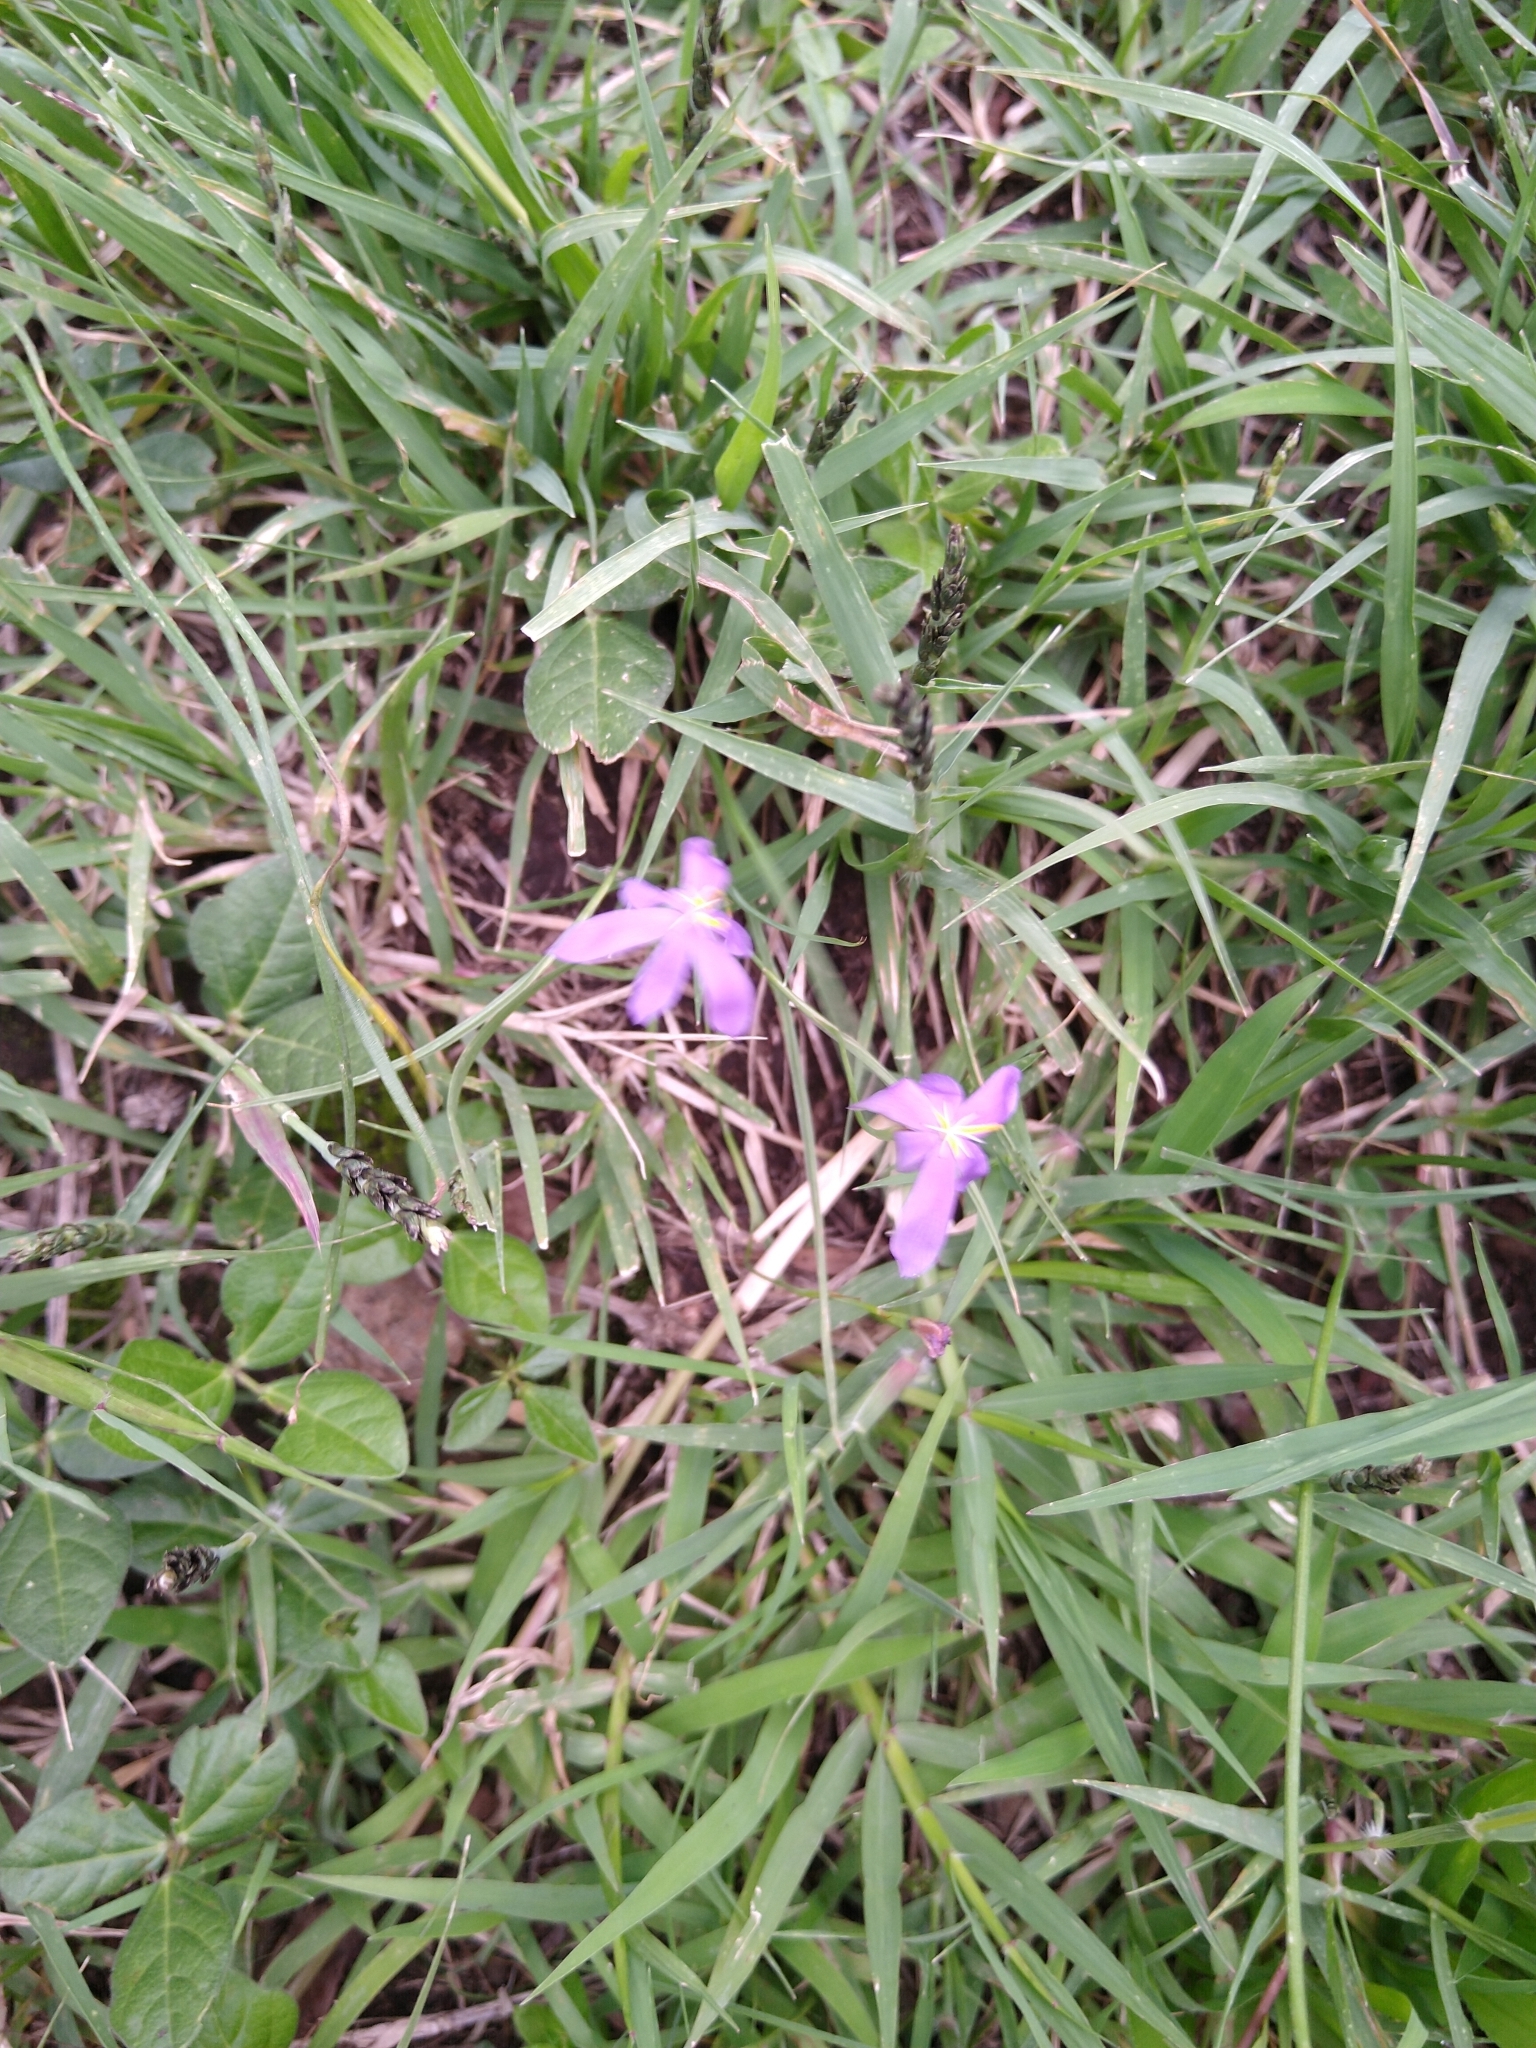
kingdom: Plantae
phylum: Tracheophyta
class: Liliopsida
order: Asparagales
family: Iridaceae
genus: Nemastylis
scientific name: Nemastylis tenuis
